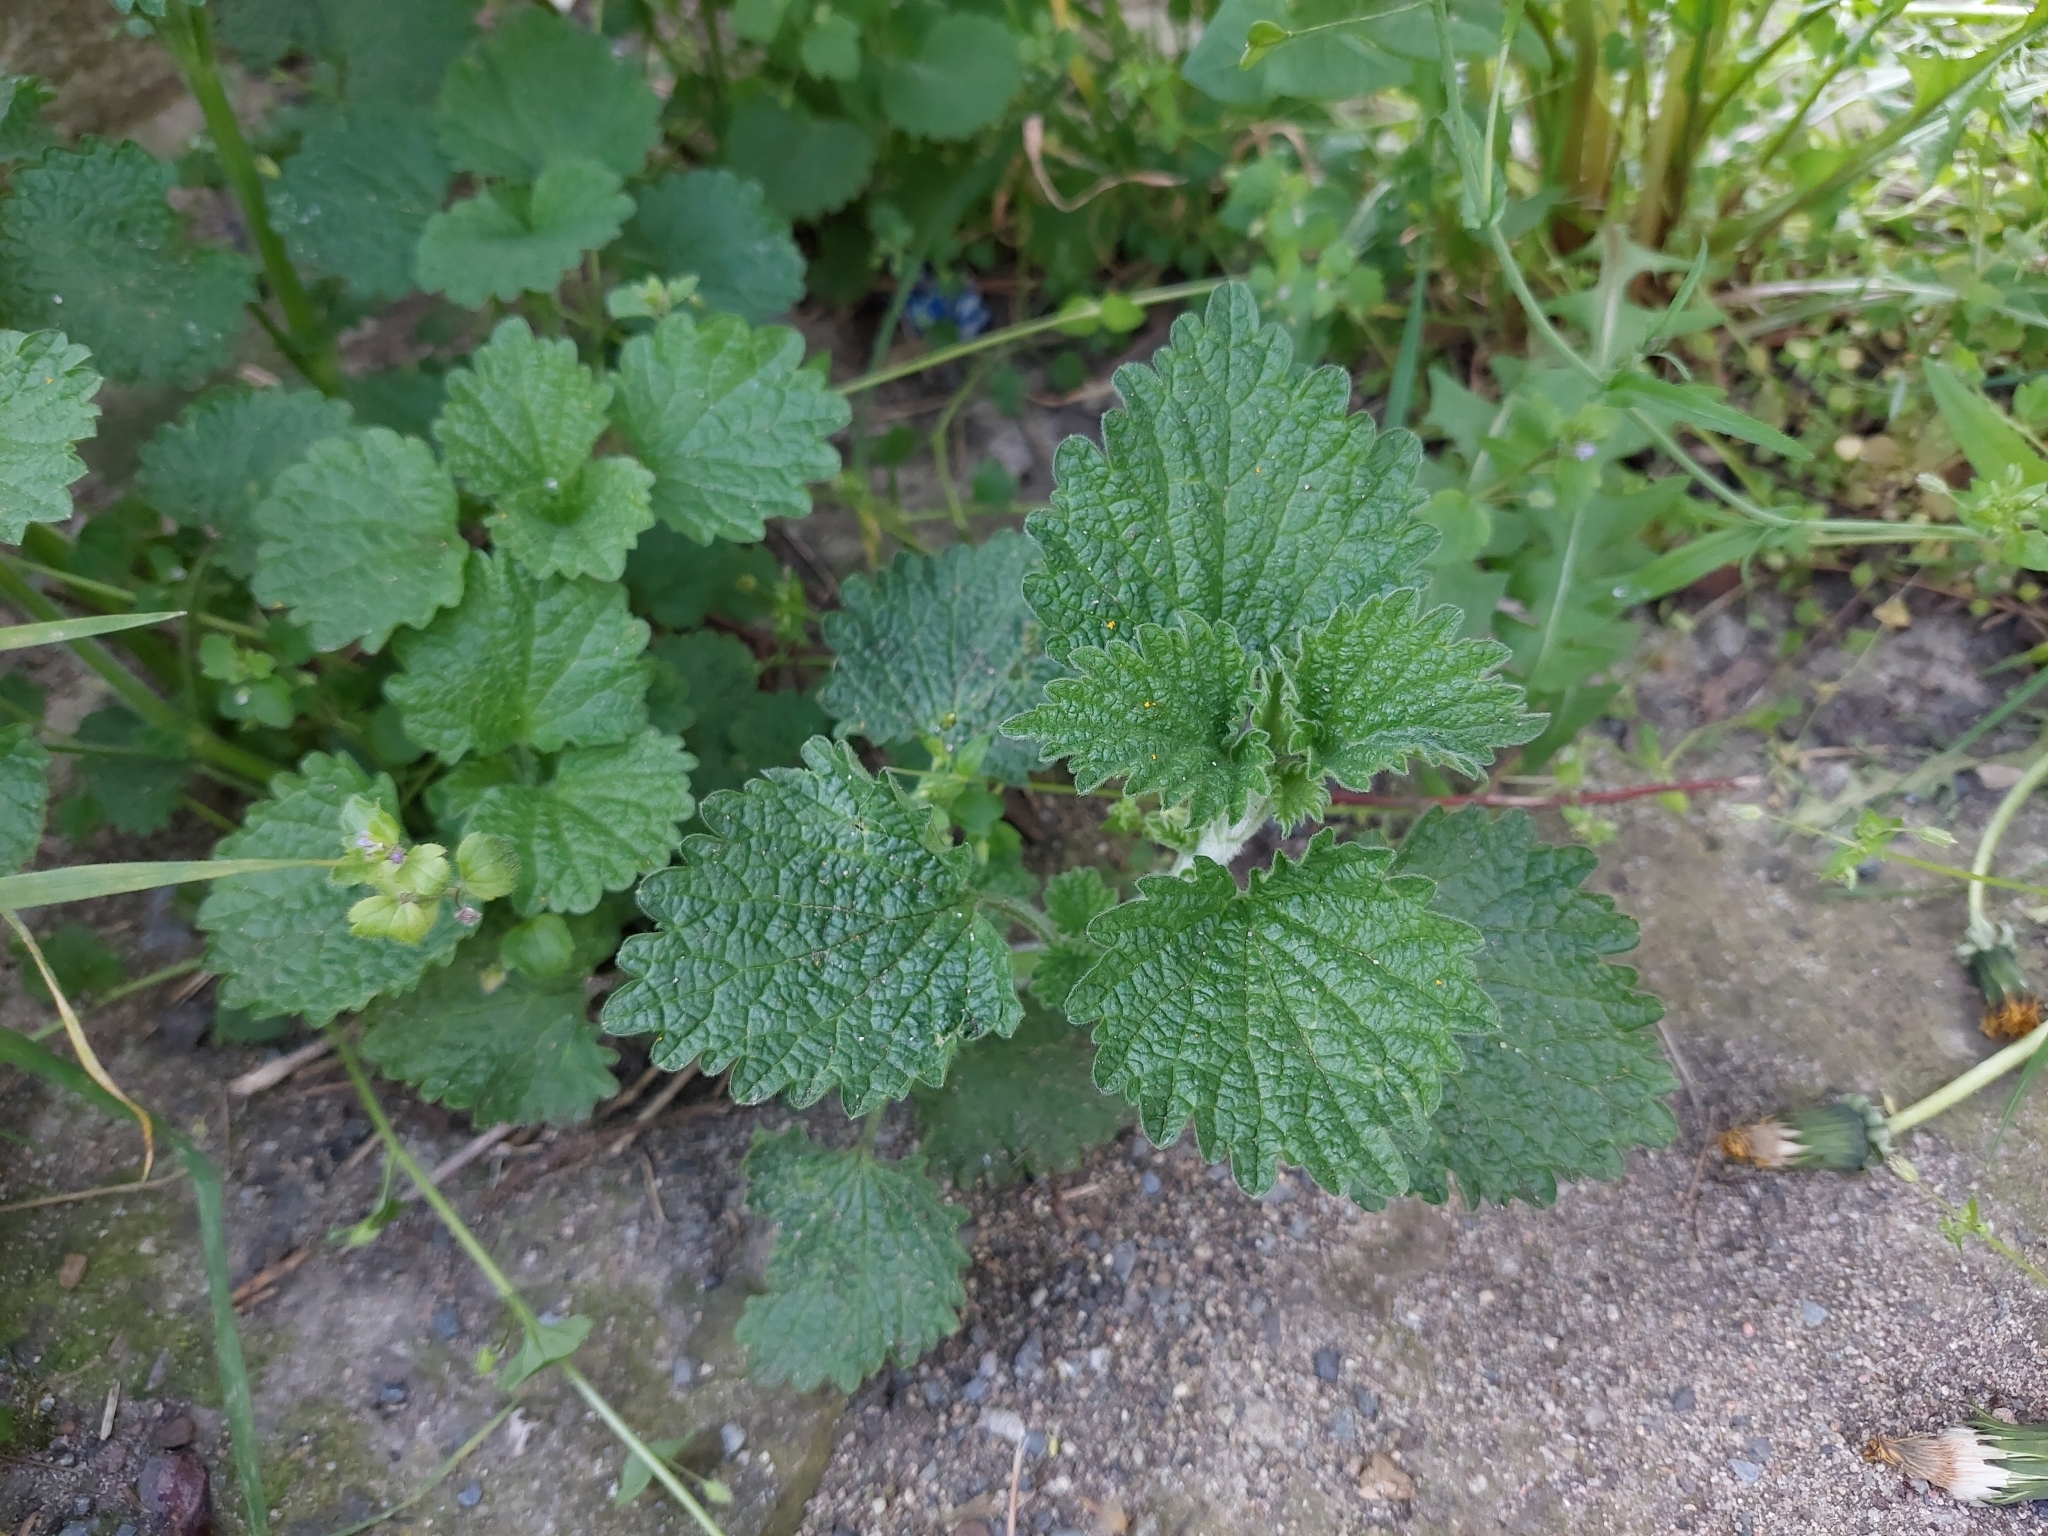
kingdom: Plantae
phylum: Tracheophyta
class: Magnoliopsida
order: Lamiales
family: Lamiaceae
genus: Ballota
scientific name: Ballota nigra
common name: Black horehound
